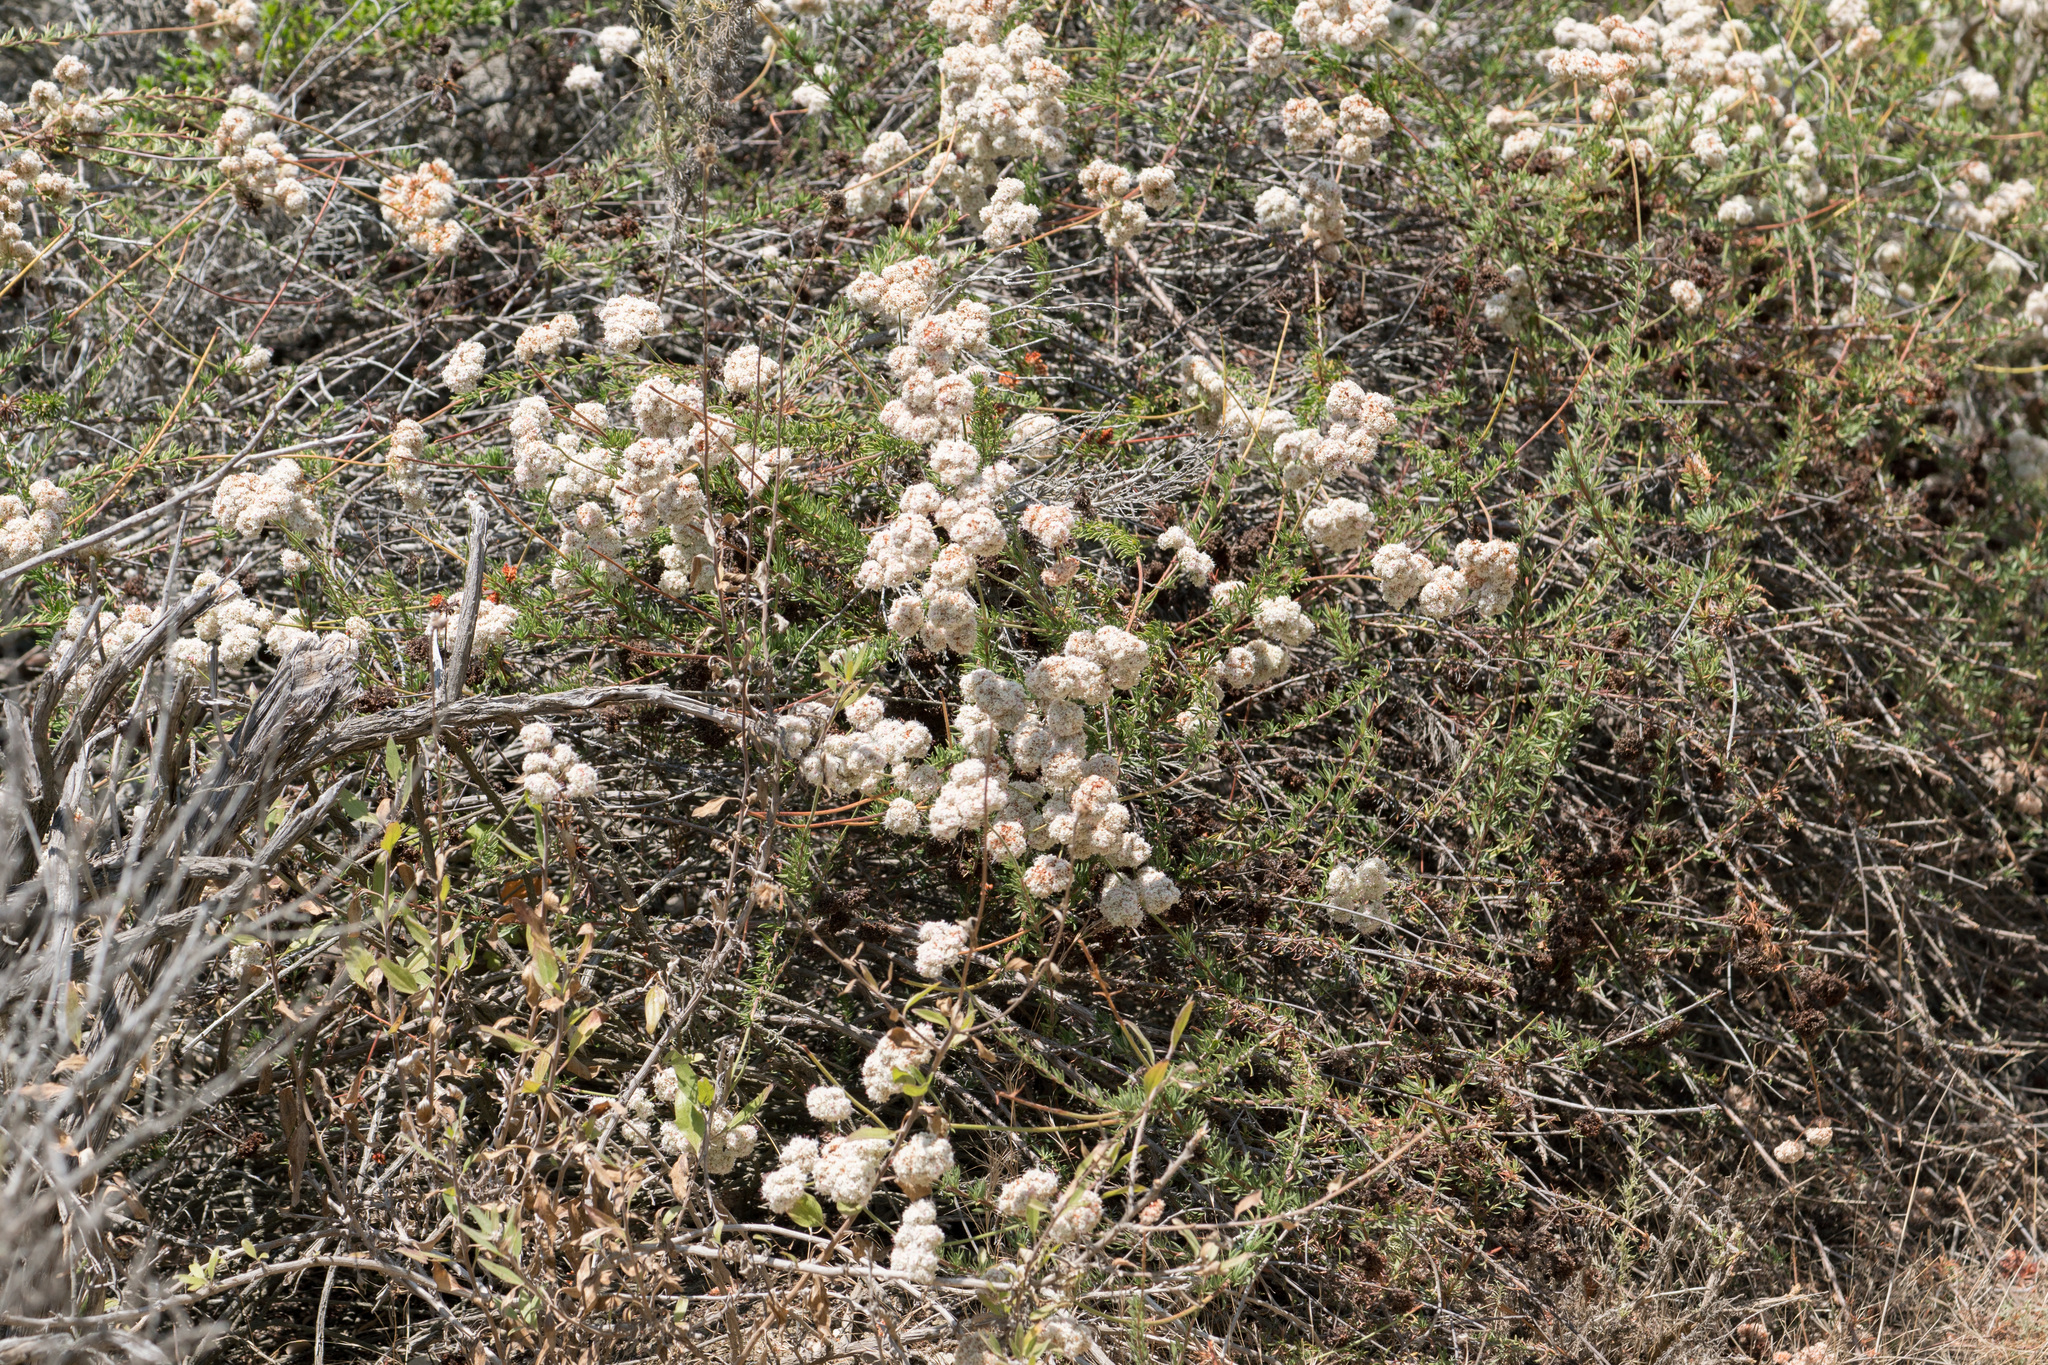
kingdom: Plantae
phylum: Tracheophyta
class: Magnoliopsida
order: Caryophyllales
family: Polygonaceae
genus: Eriogonum
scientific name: Eriogonum fasciculatum
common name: California wild buckwheat
